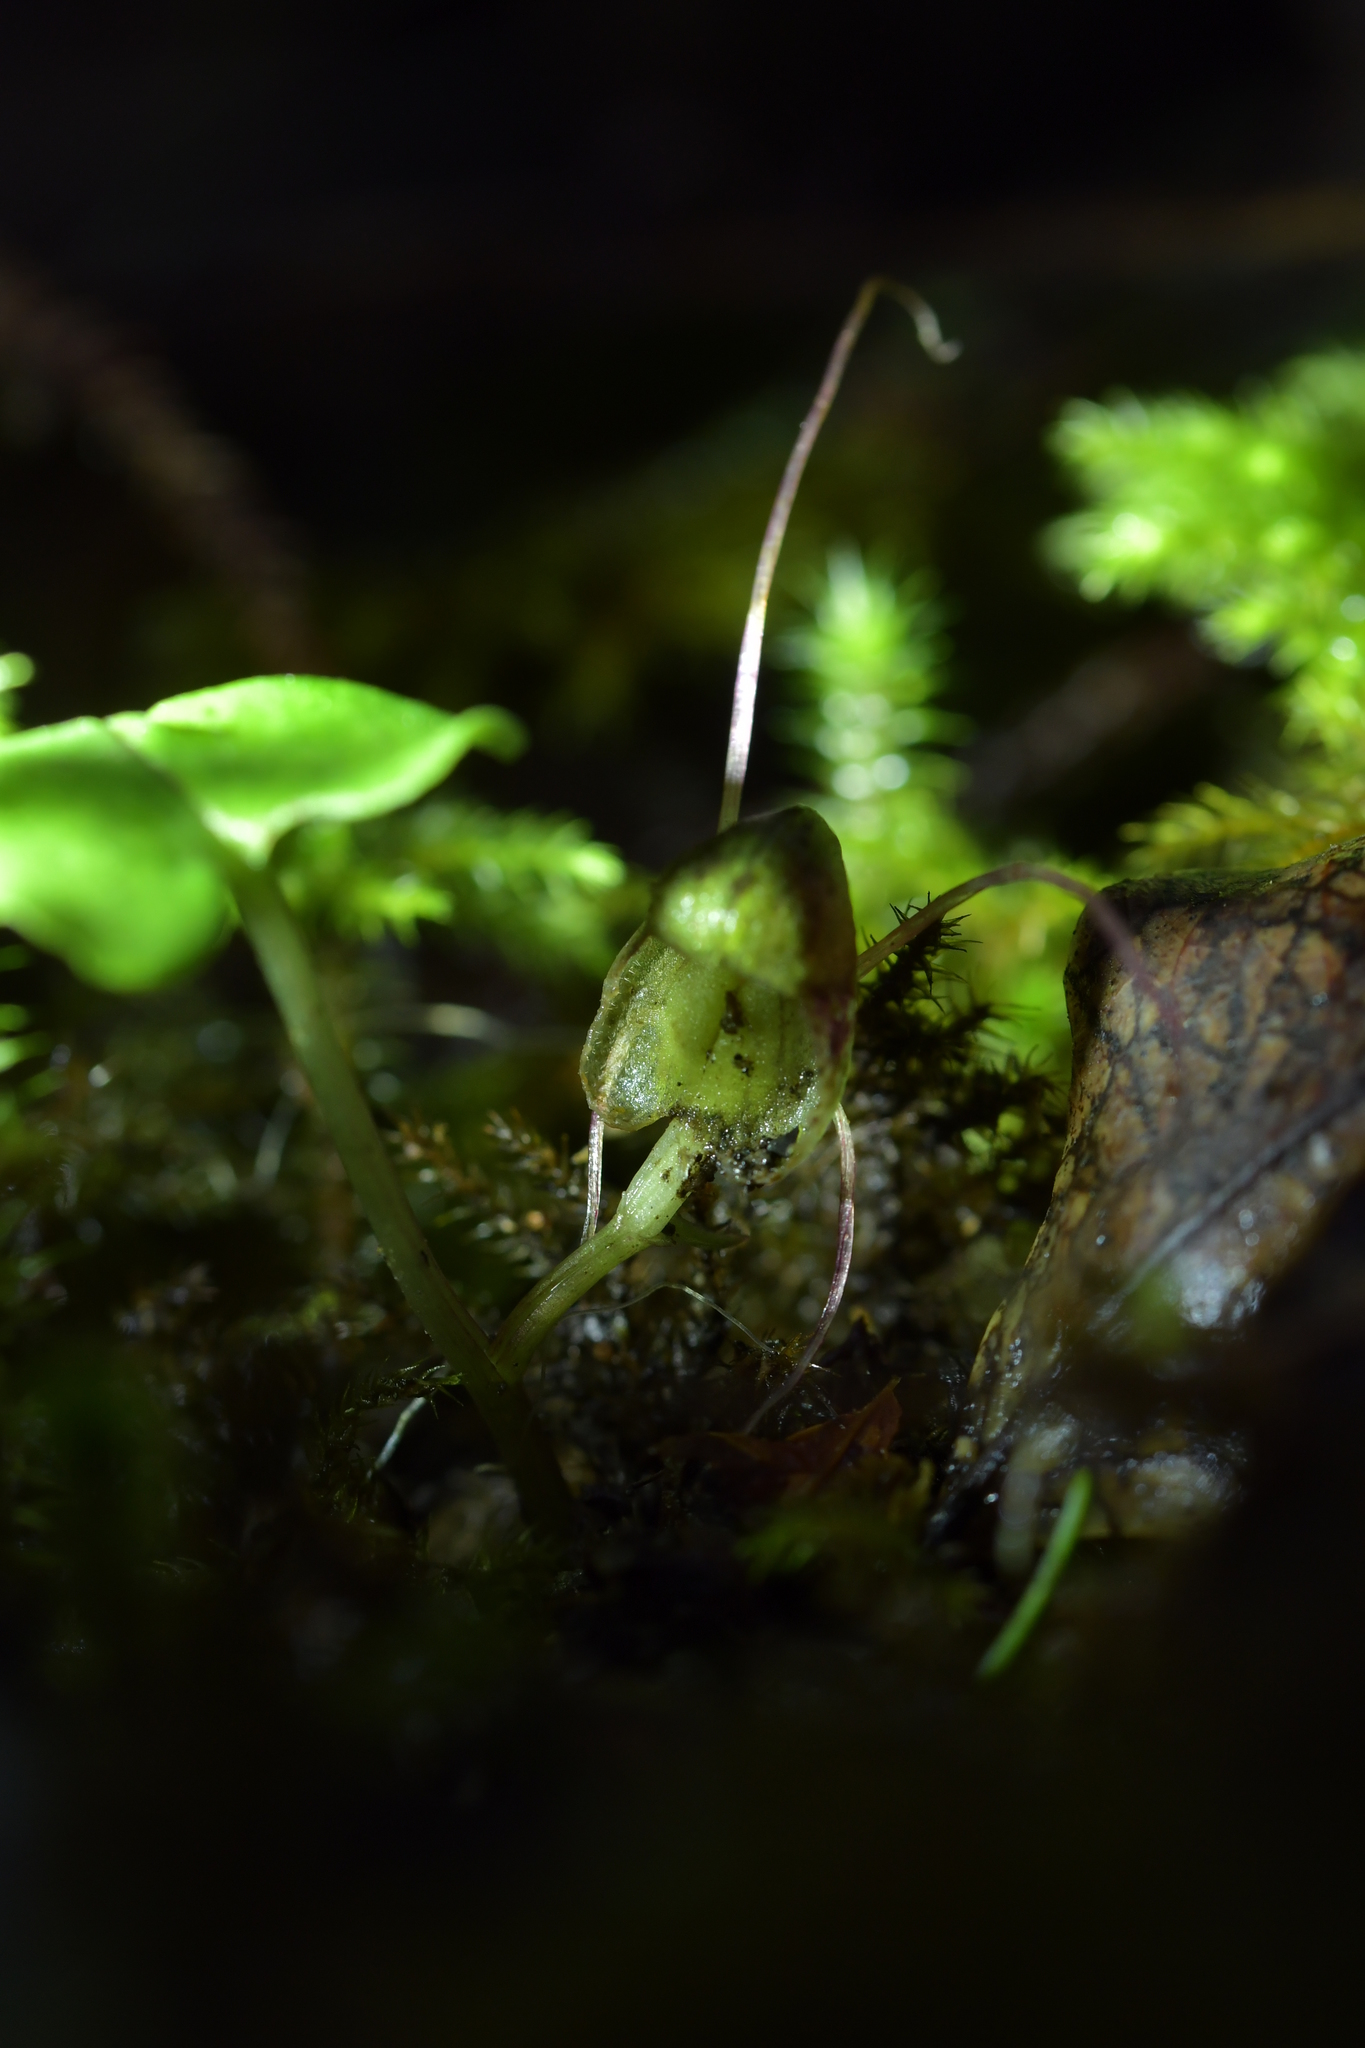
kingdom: Plantae
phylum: Tracheophyta
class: Liliopsida
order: Asparagales
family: Orchidaceae
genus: Corybas
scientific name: Corybas vitreus
